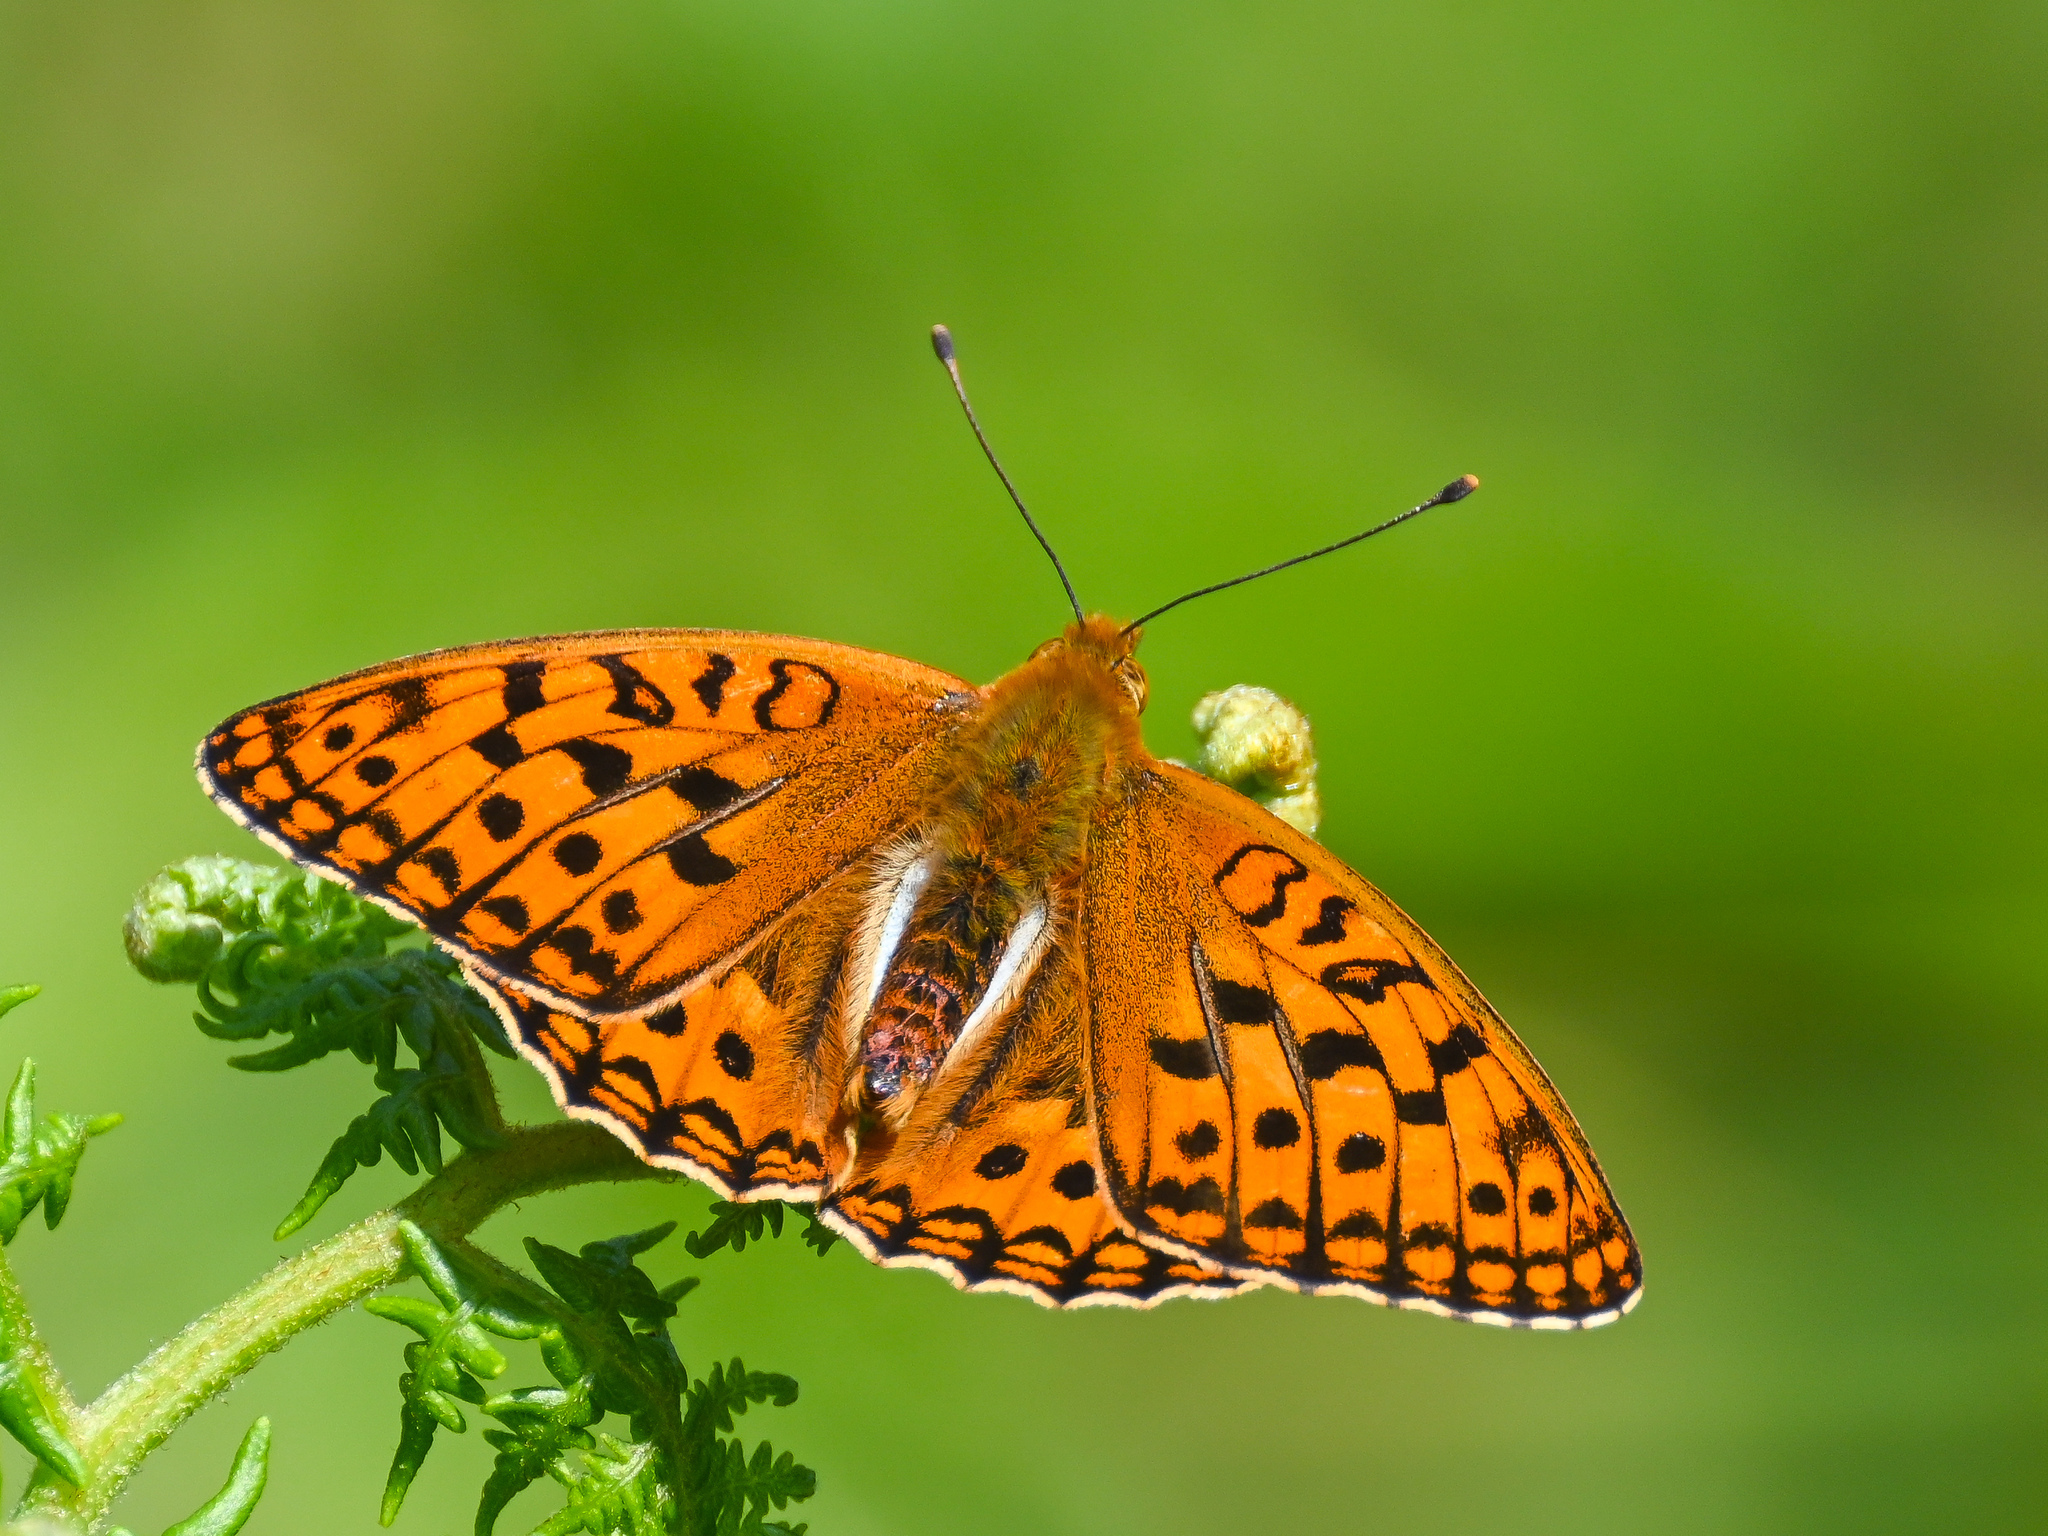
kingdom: Animalia
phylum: Arthropoda
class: Insecta
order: Lepidoptera
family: Nymphalidae
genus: Fabriciana
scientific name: Fabriciana adippe
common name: High brown fritillary
